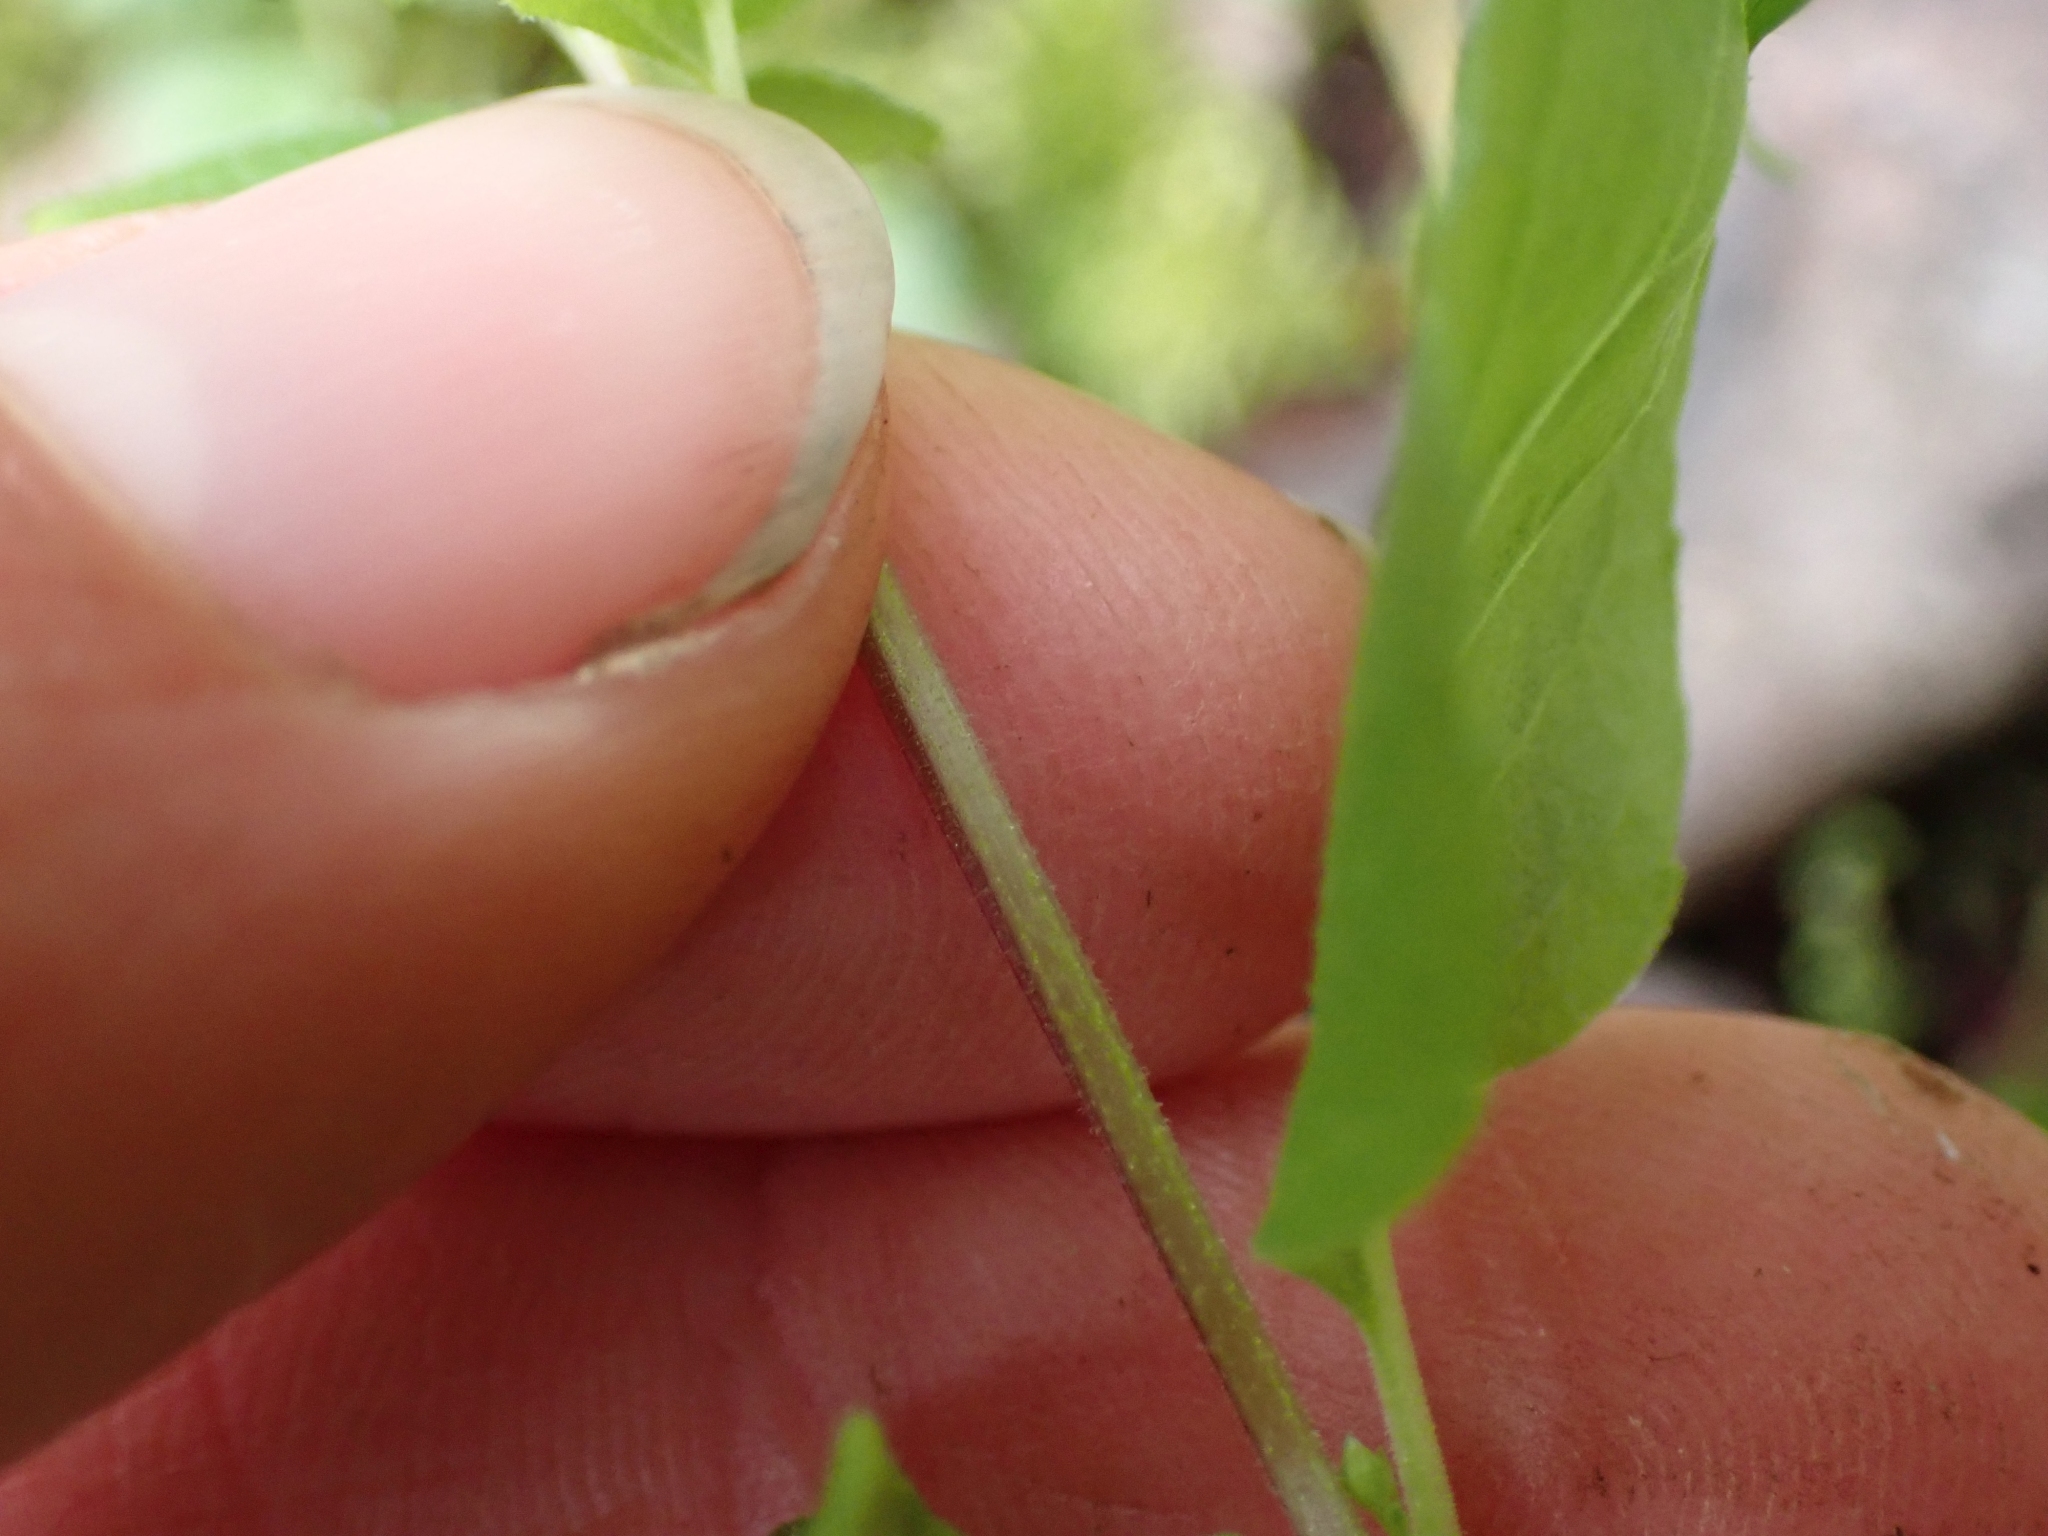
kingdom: Plantae
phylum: Tracheophyta
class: Magnoliopsida
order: Lamiales
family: Lamiaceae
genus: Micromeria
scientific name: Micromeria douglasii
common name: Yerba buena
